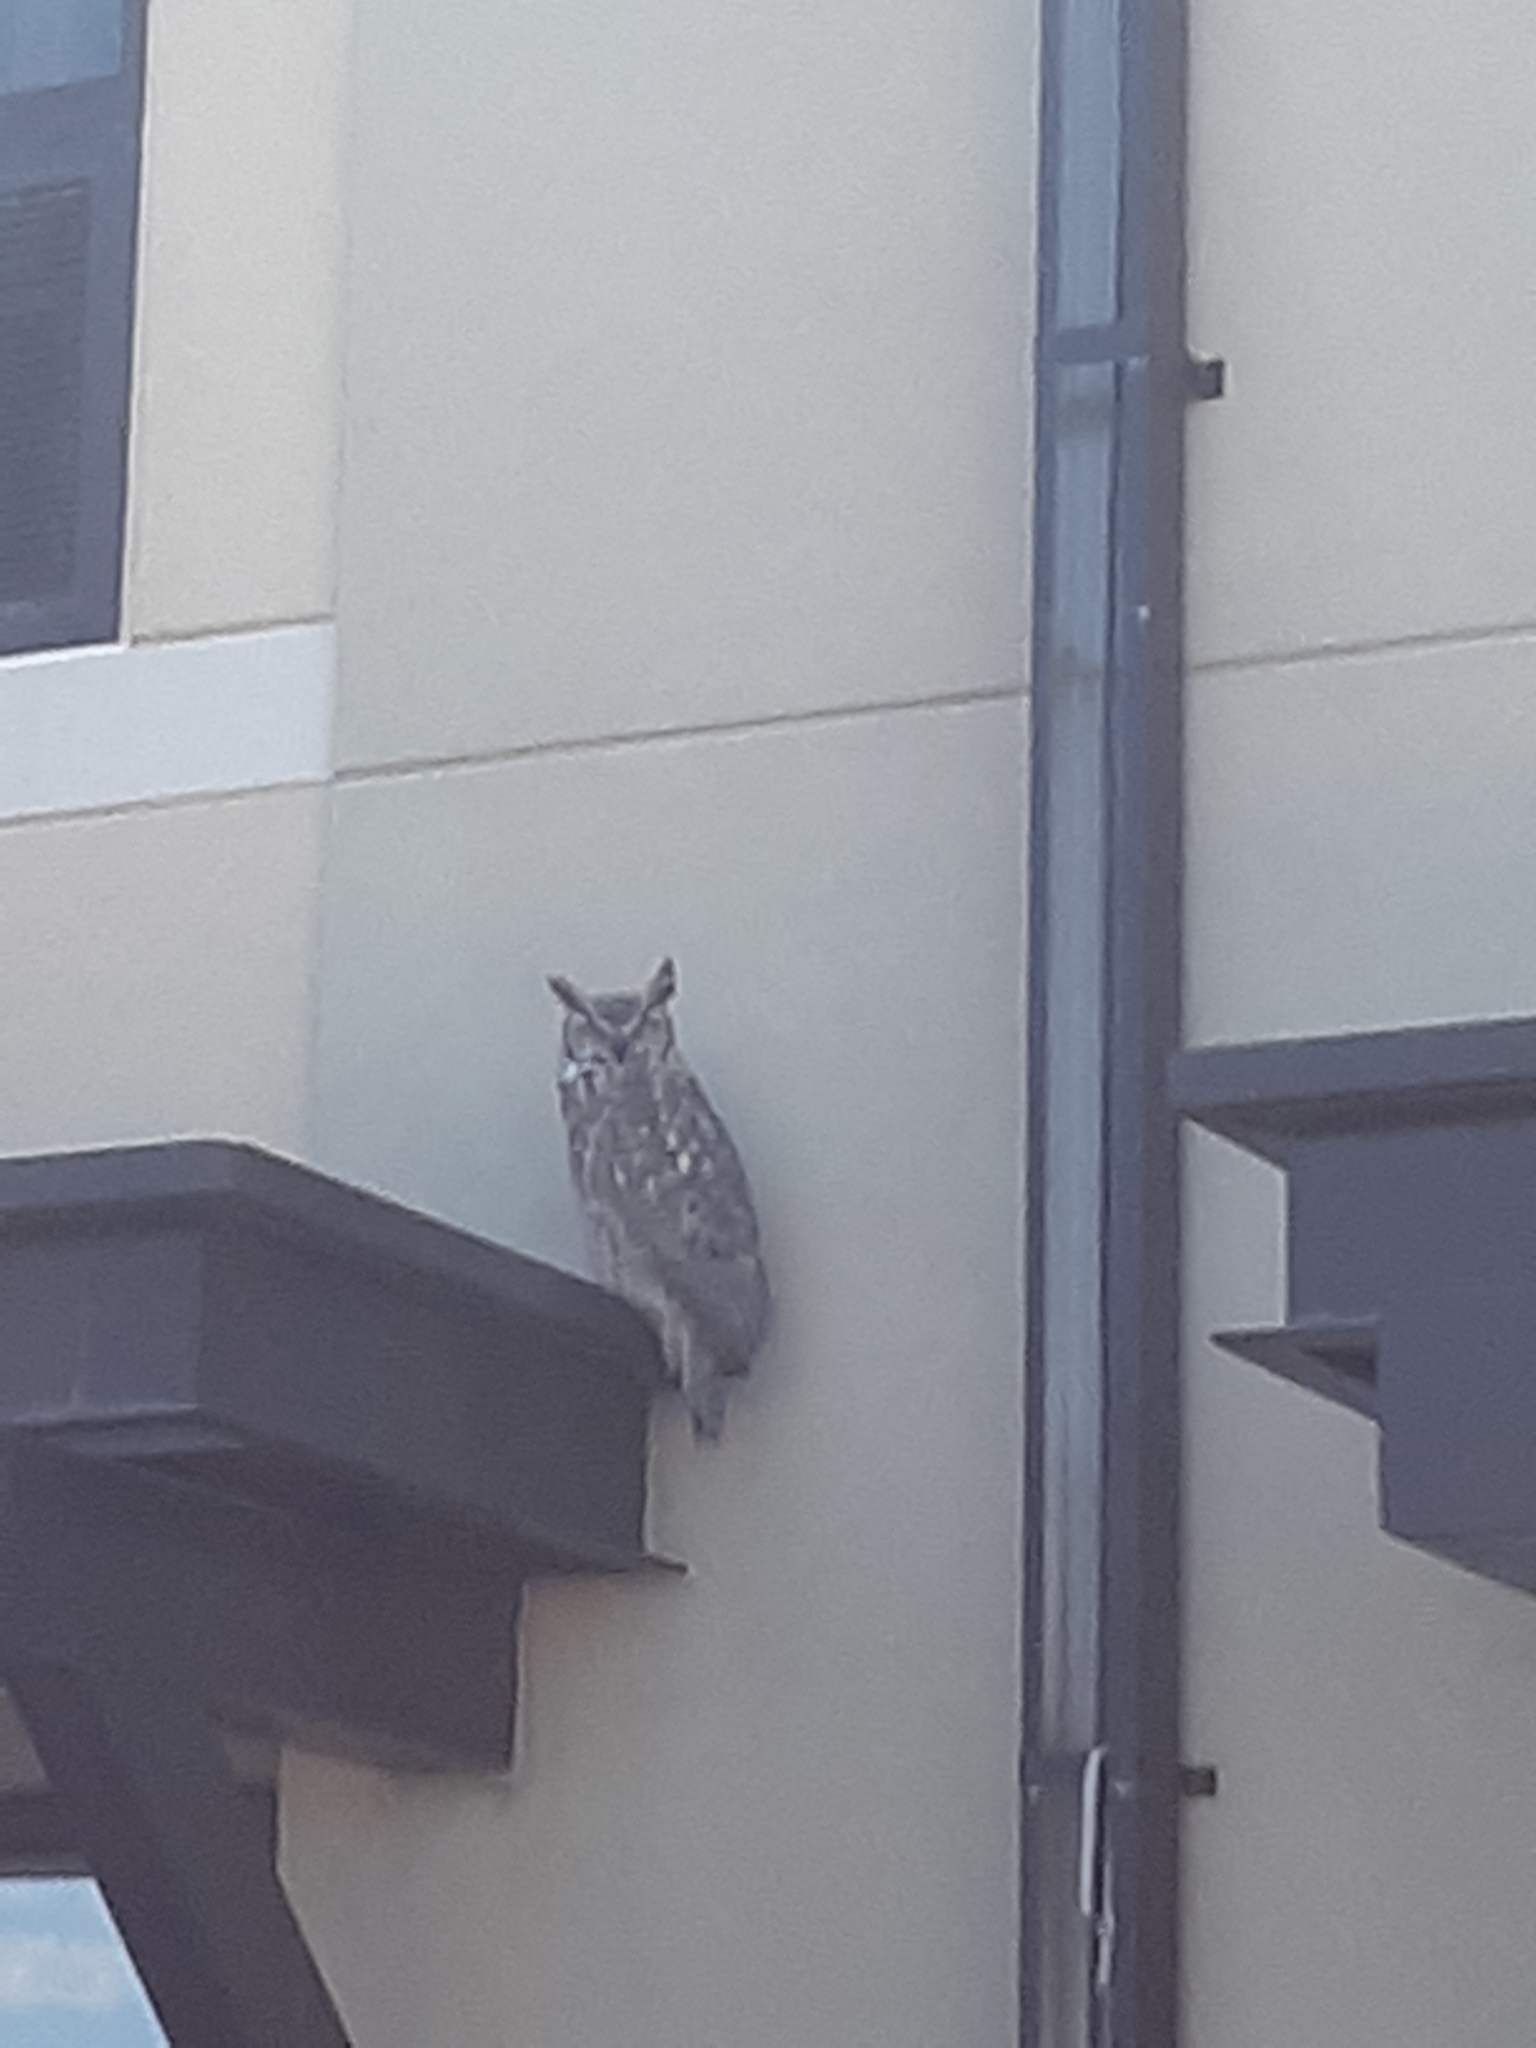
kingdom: Animalia
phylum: Chordata
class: Aves
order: Strigiformes
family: Strigidae
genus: Bubo
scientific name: Bubo virginianus
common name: Great horned owl
